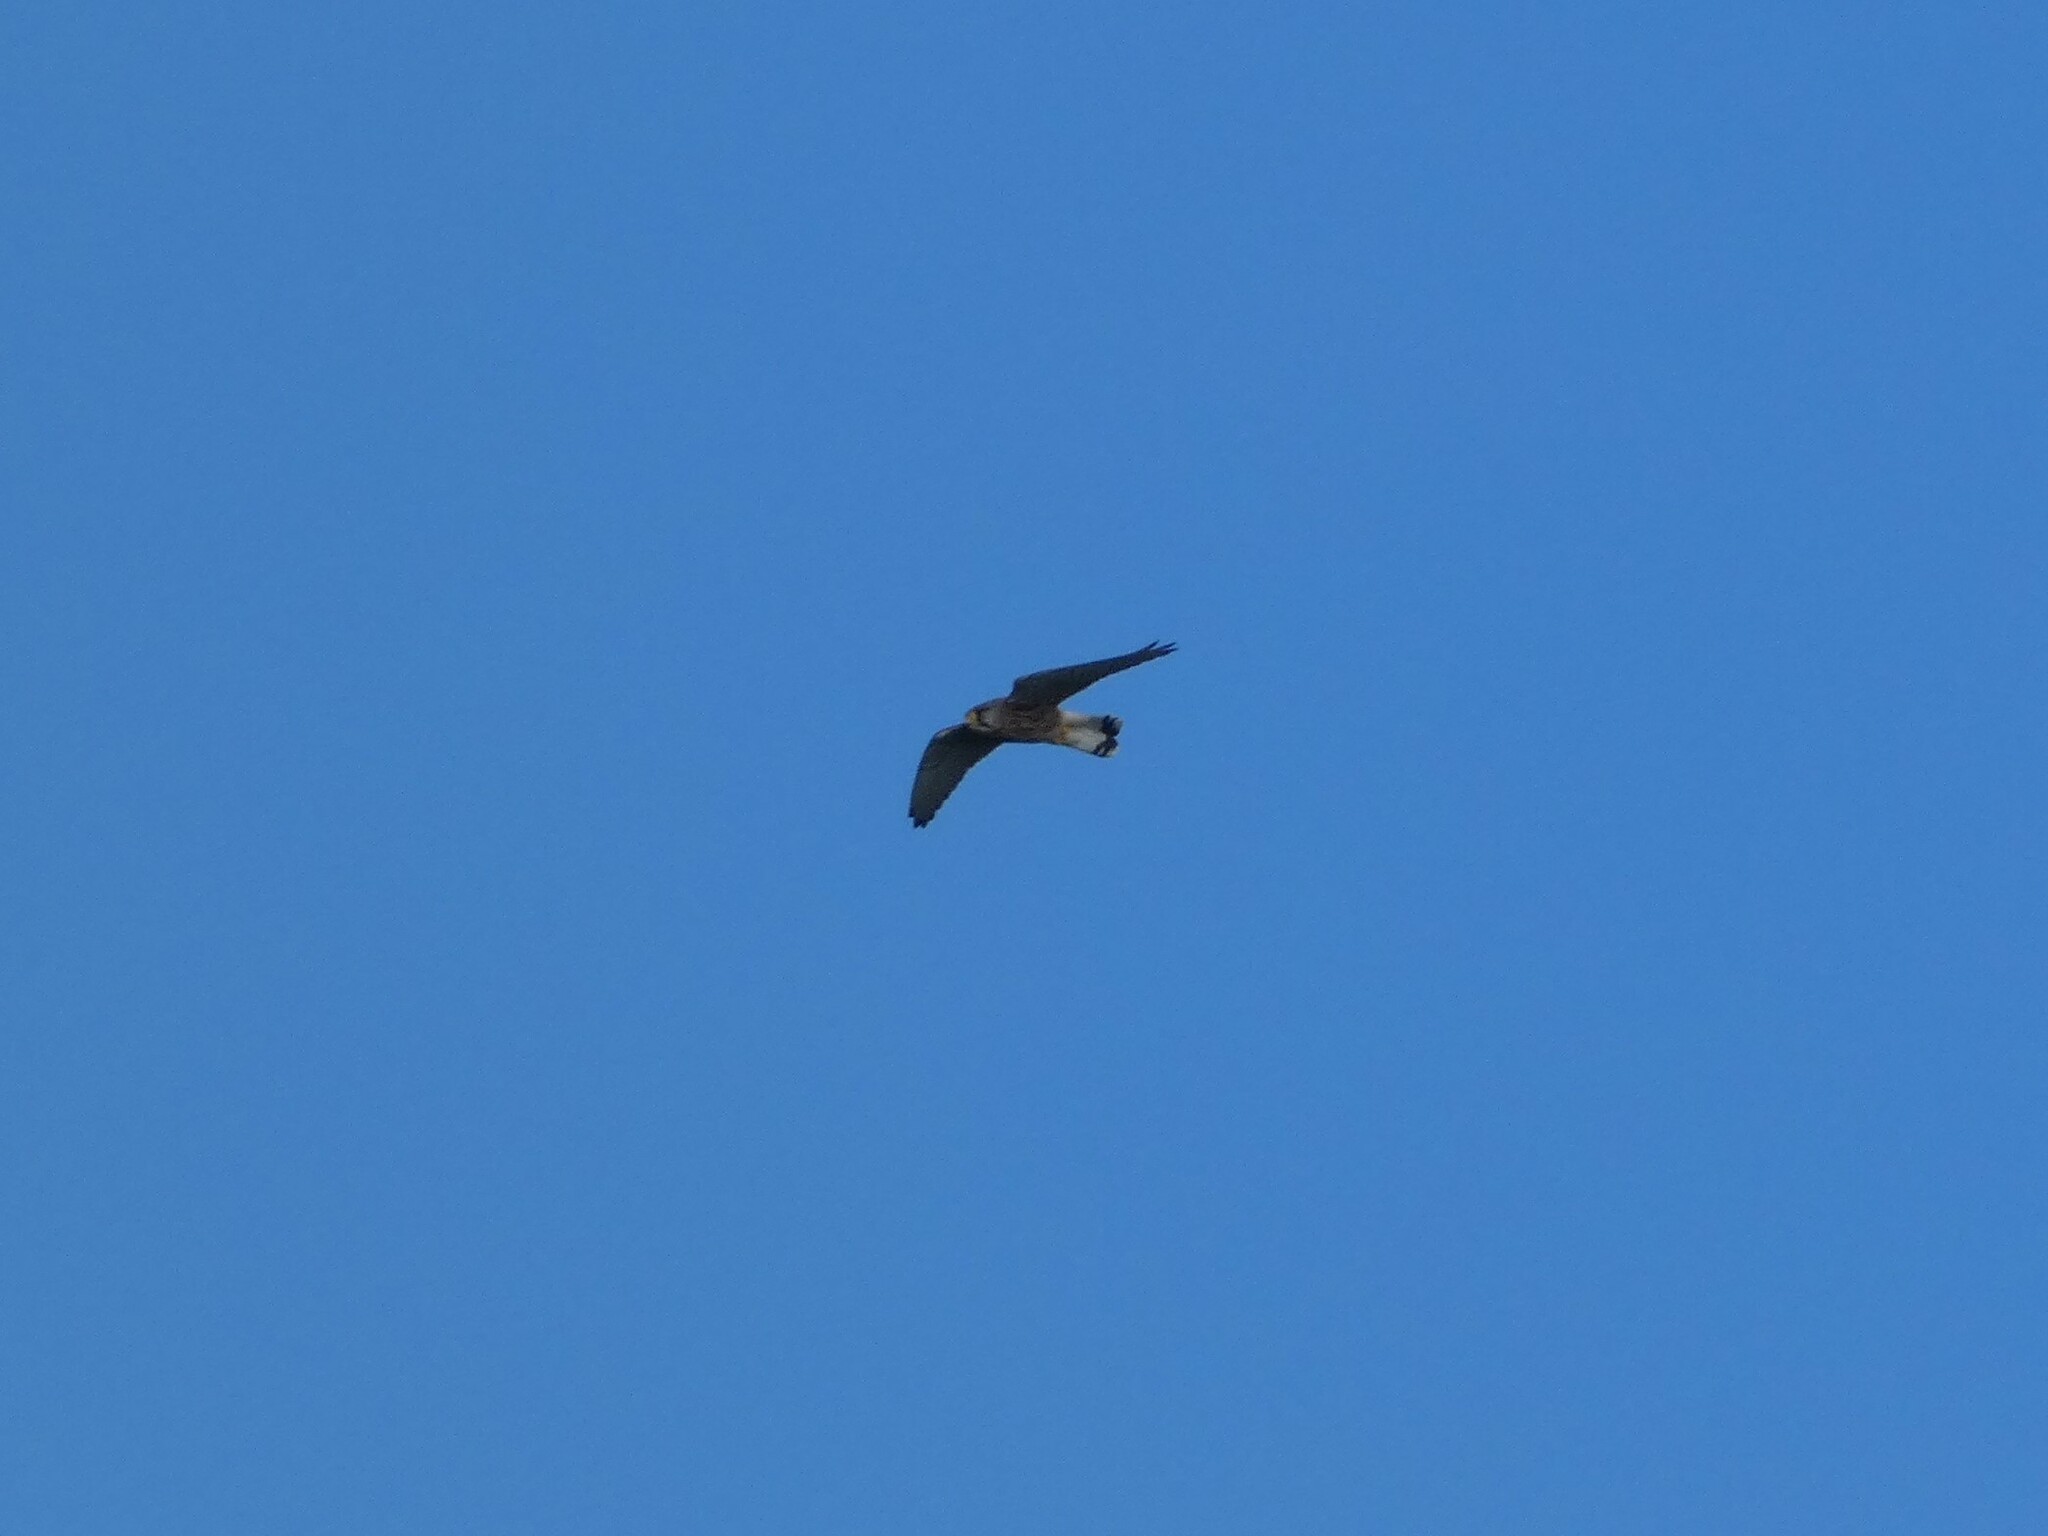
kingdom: Animalia
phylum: Chordata
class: Aves
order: Falconiformes
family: Falconidae
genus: Falco
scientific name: Falco tinnunculus
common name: Common kestrel
